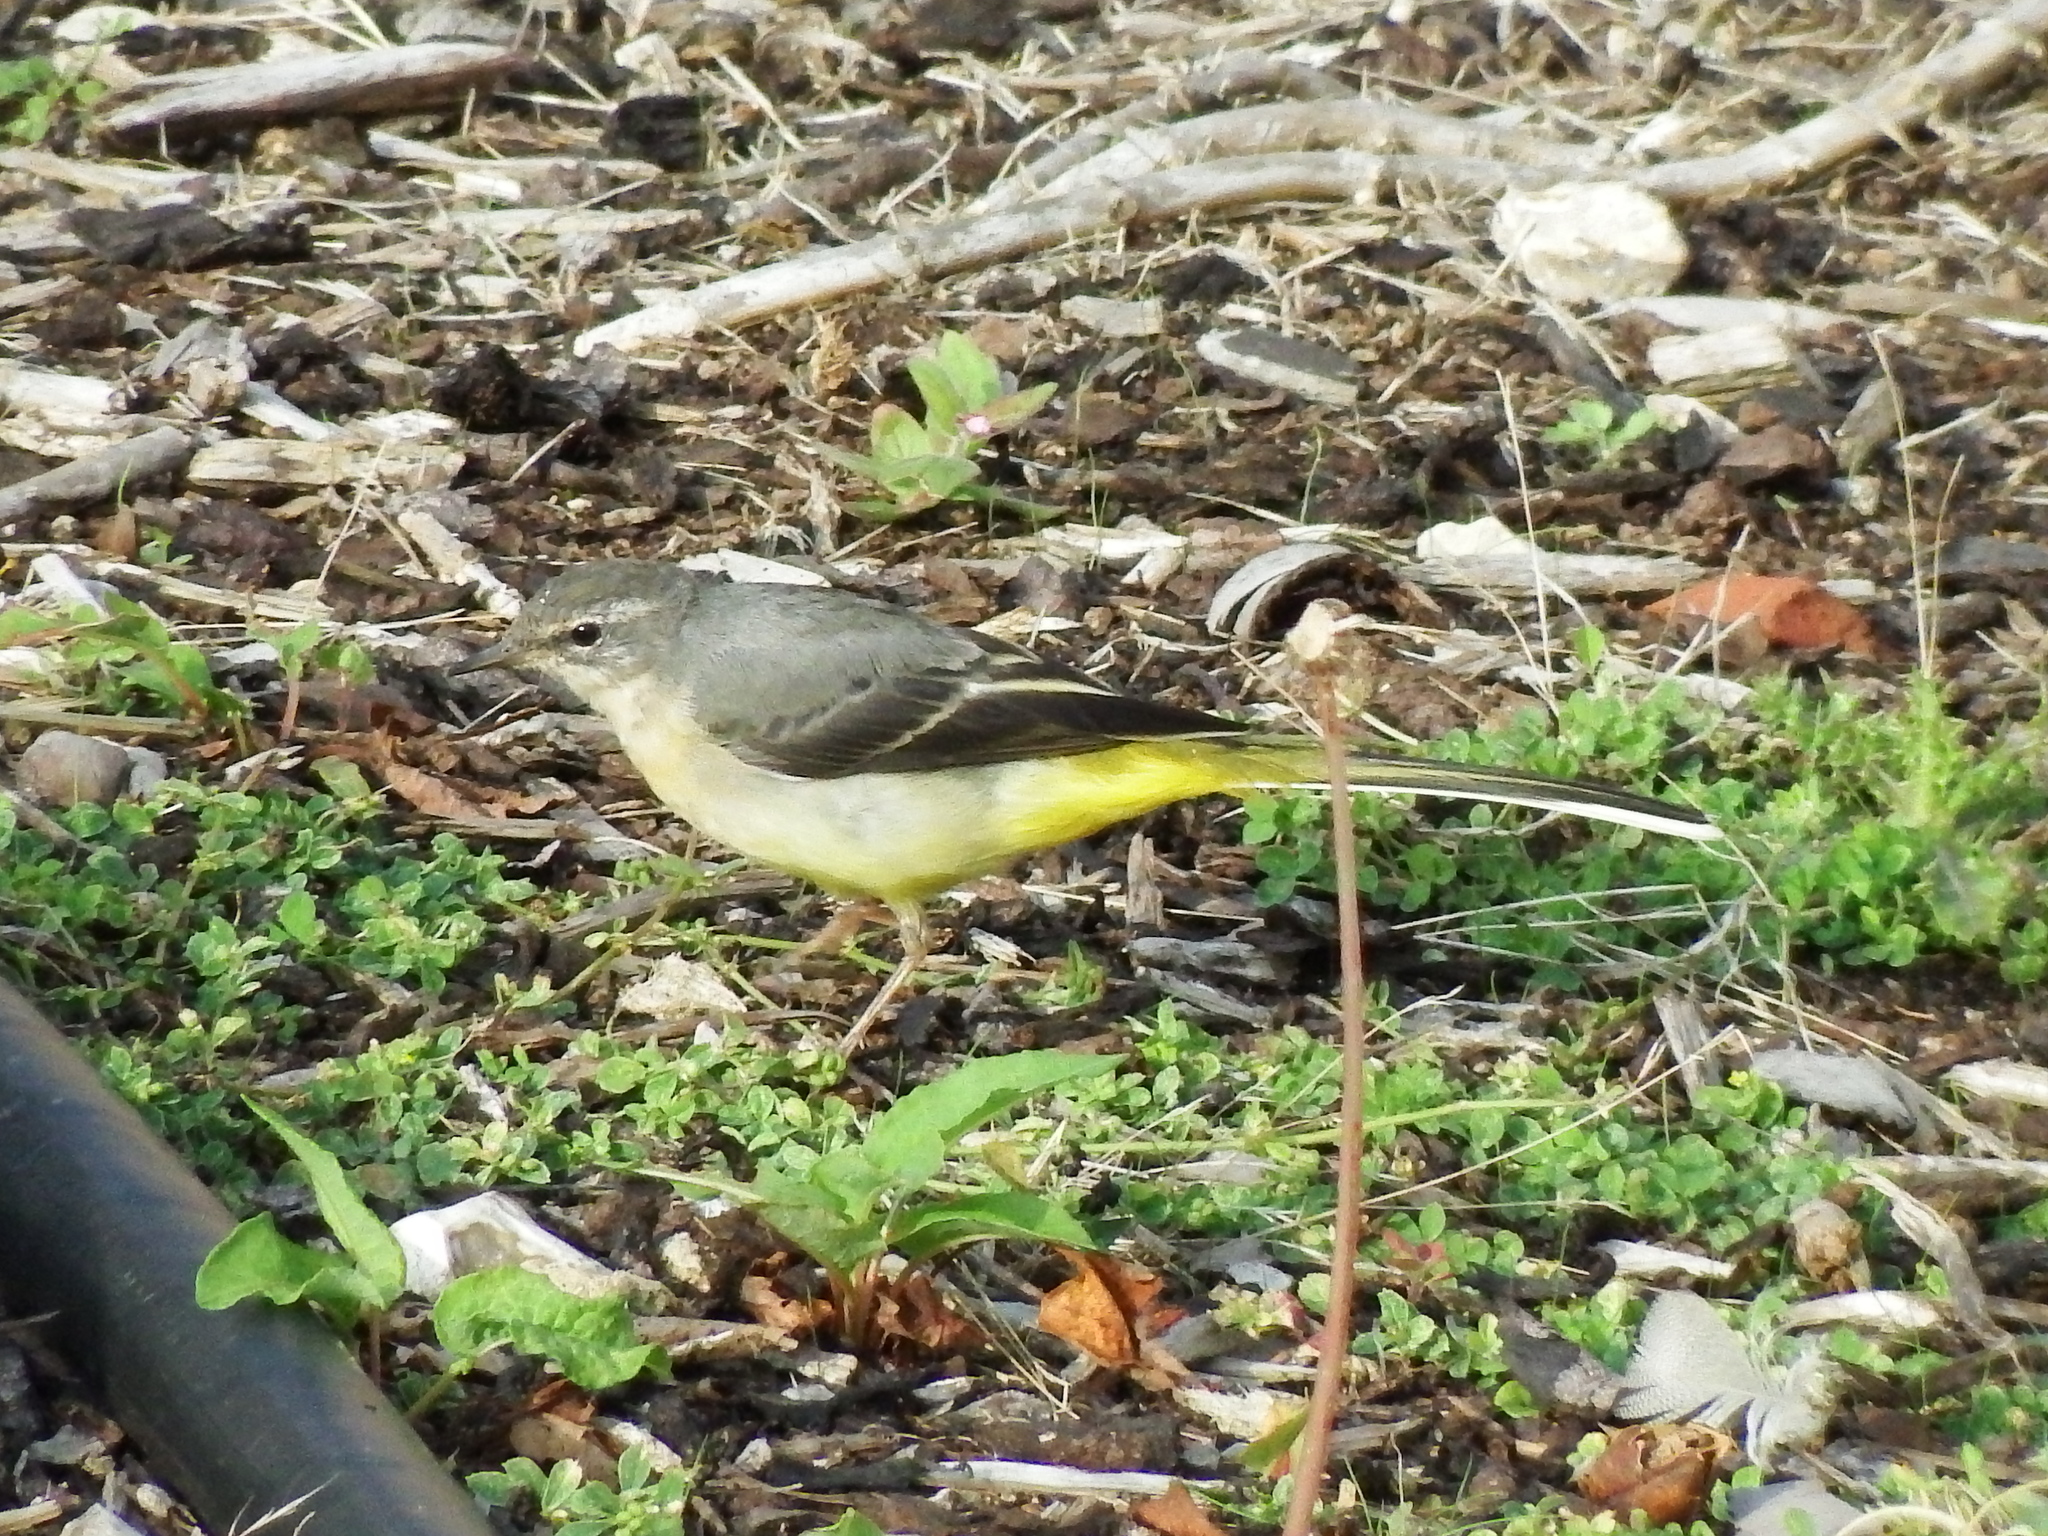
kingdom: Animalia
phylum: Chordata
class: Aves
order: Passeriformes
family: Motacillidae
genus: Motacilla
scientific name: Motacilla cinerea
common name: Grey wagtail
